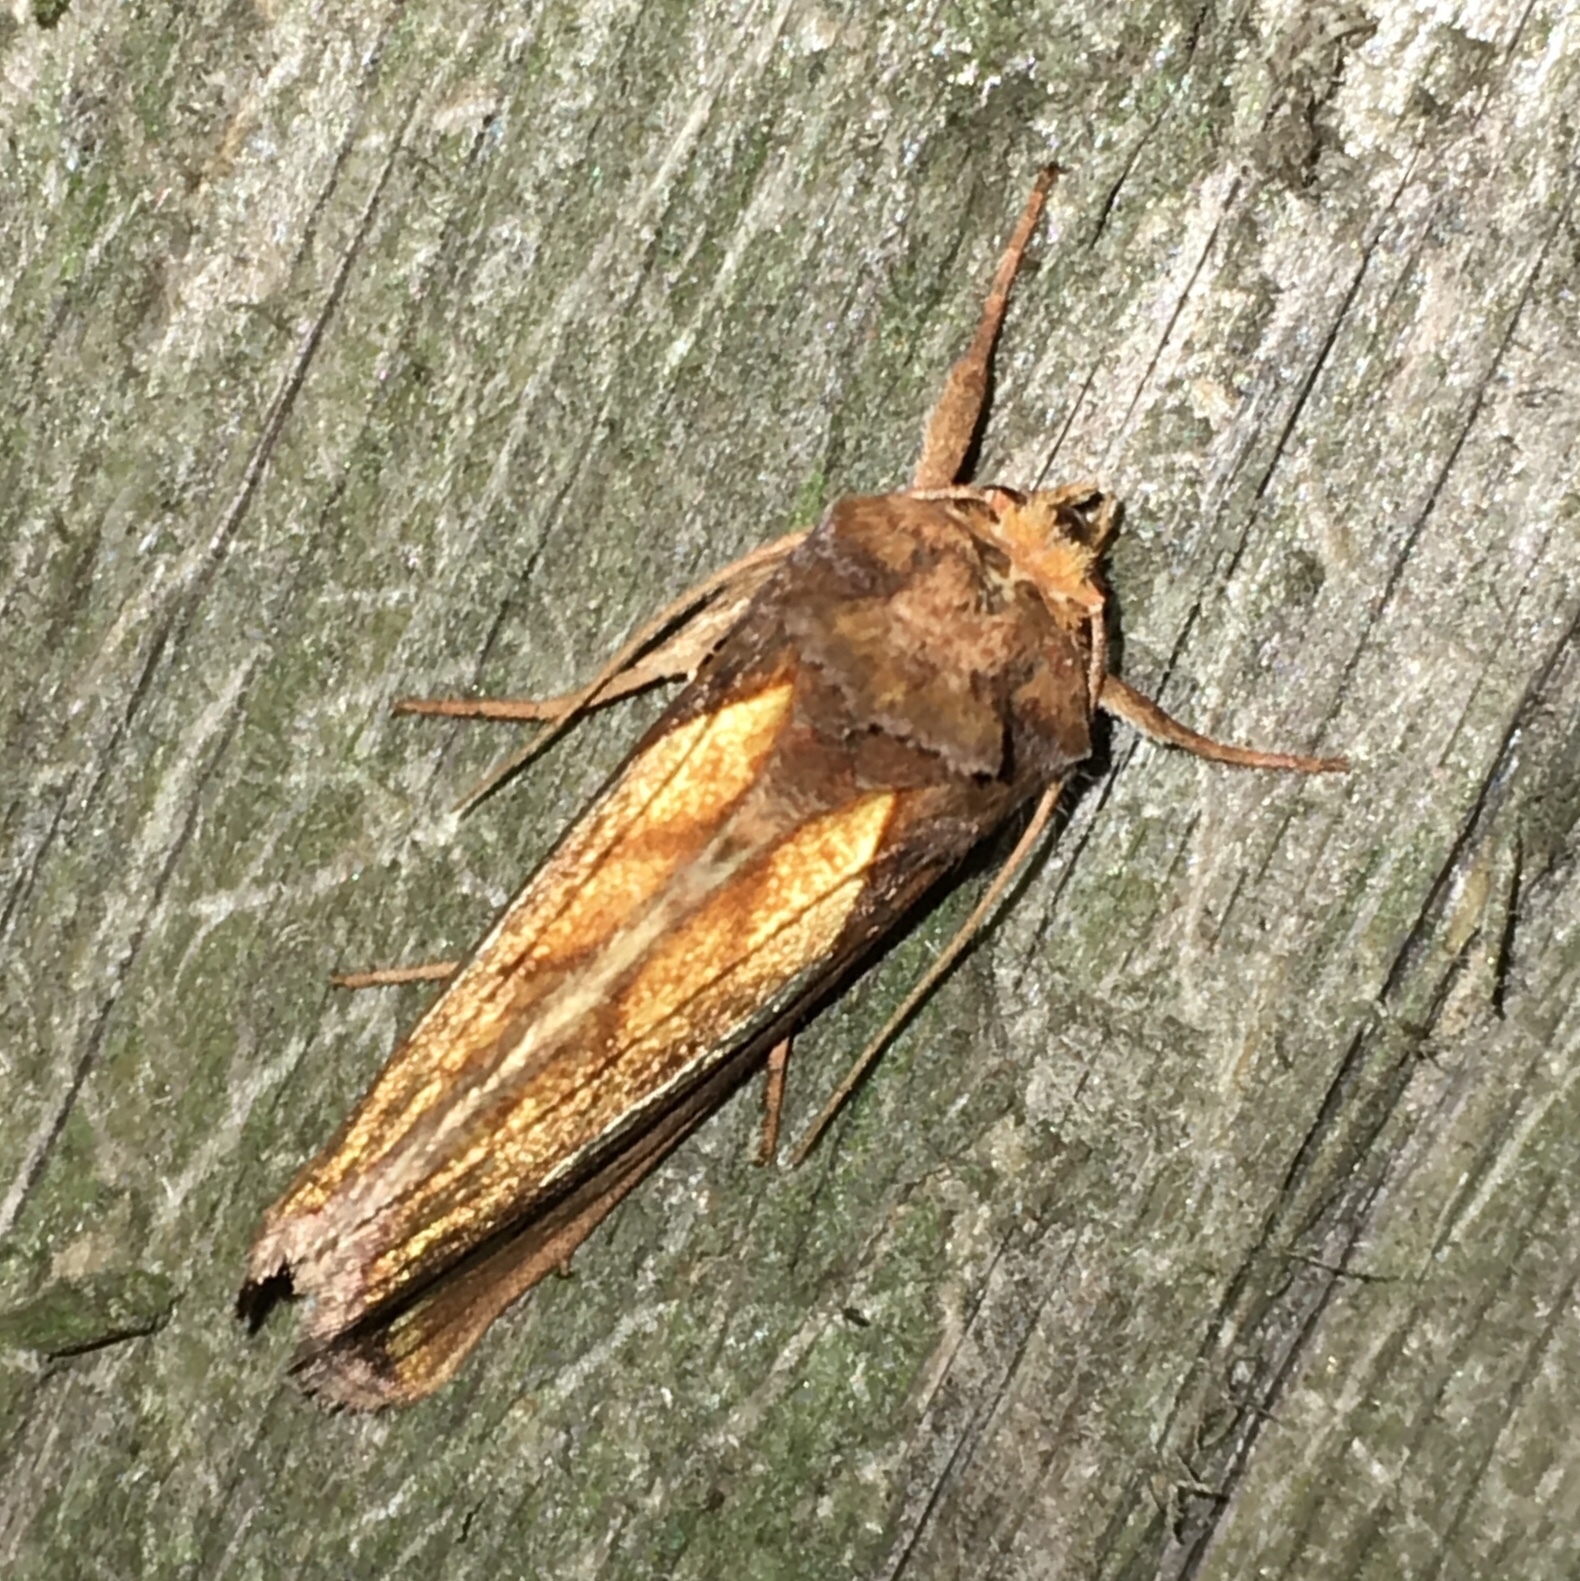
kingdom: Animalia
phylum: Arthropoda
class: Insecta
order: Lepidoptera
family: Noctuidae
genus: Plusia
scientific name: Plusia contexta
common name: Connected looper moth
